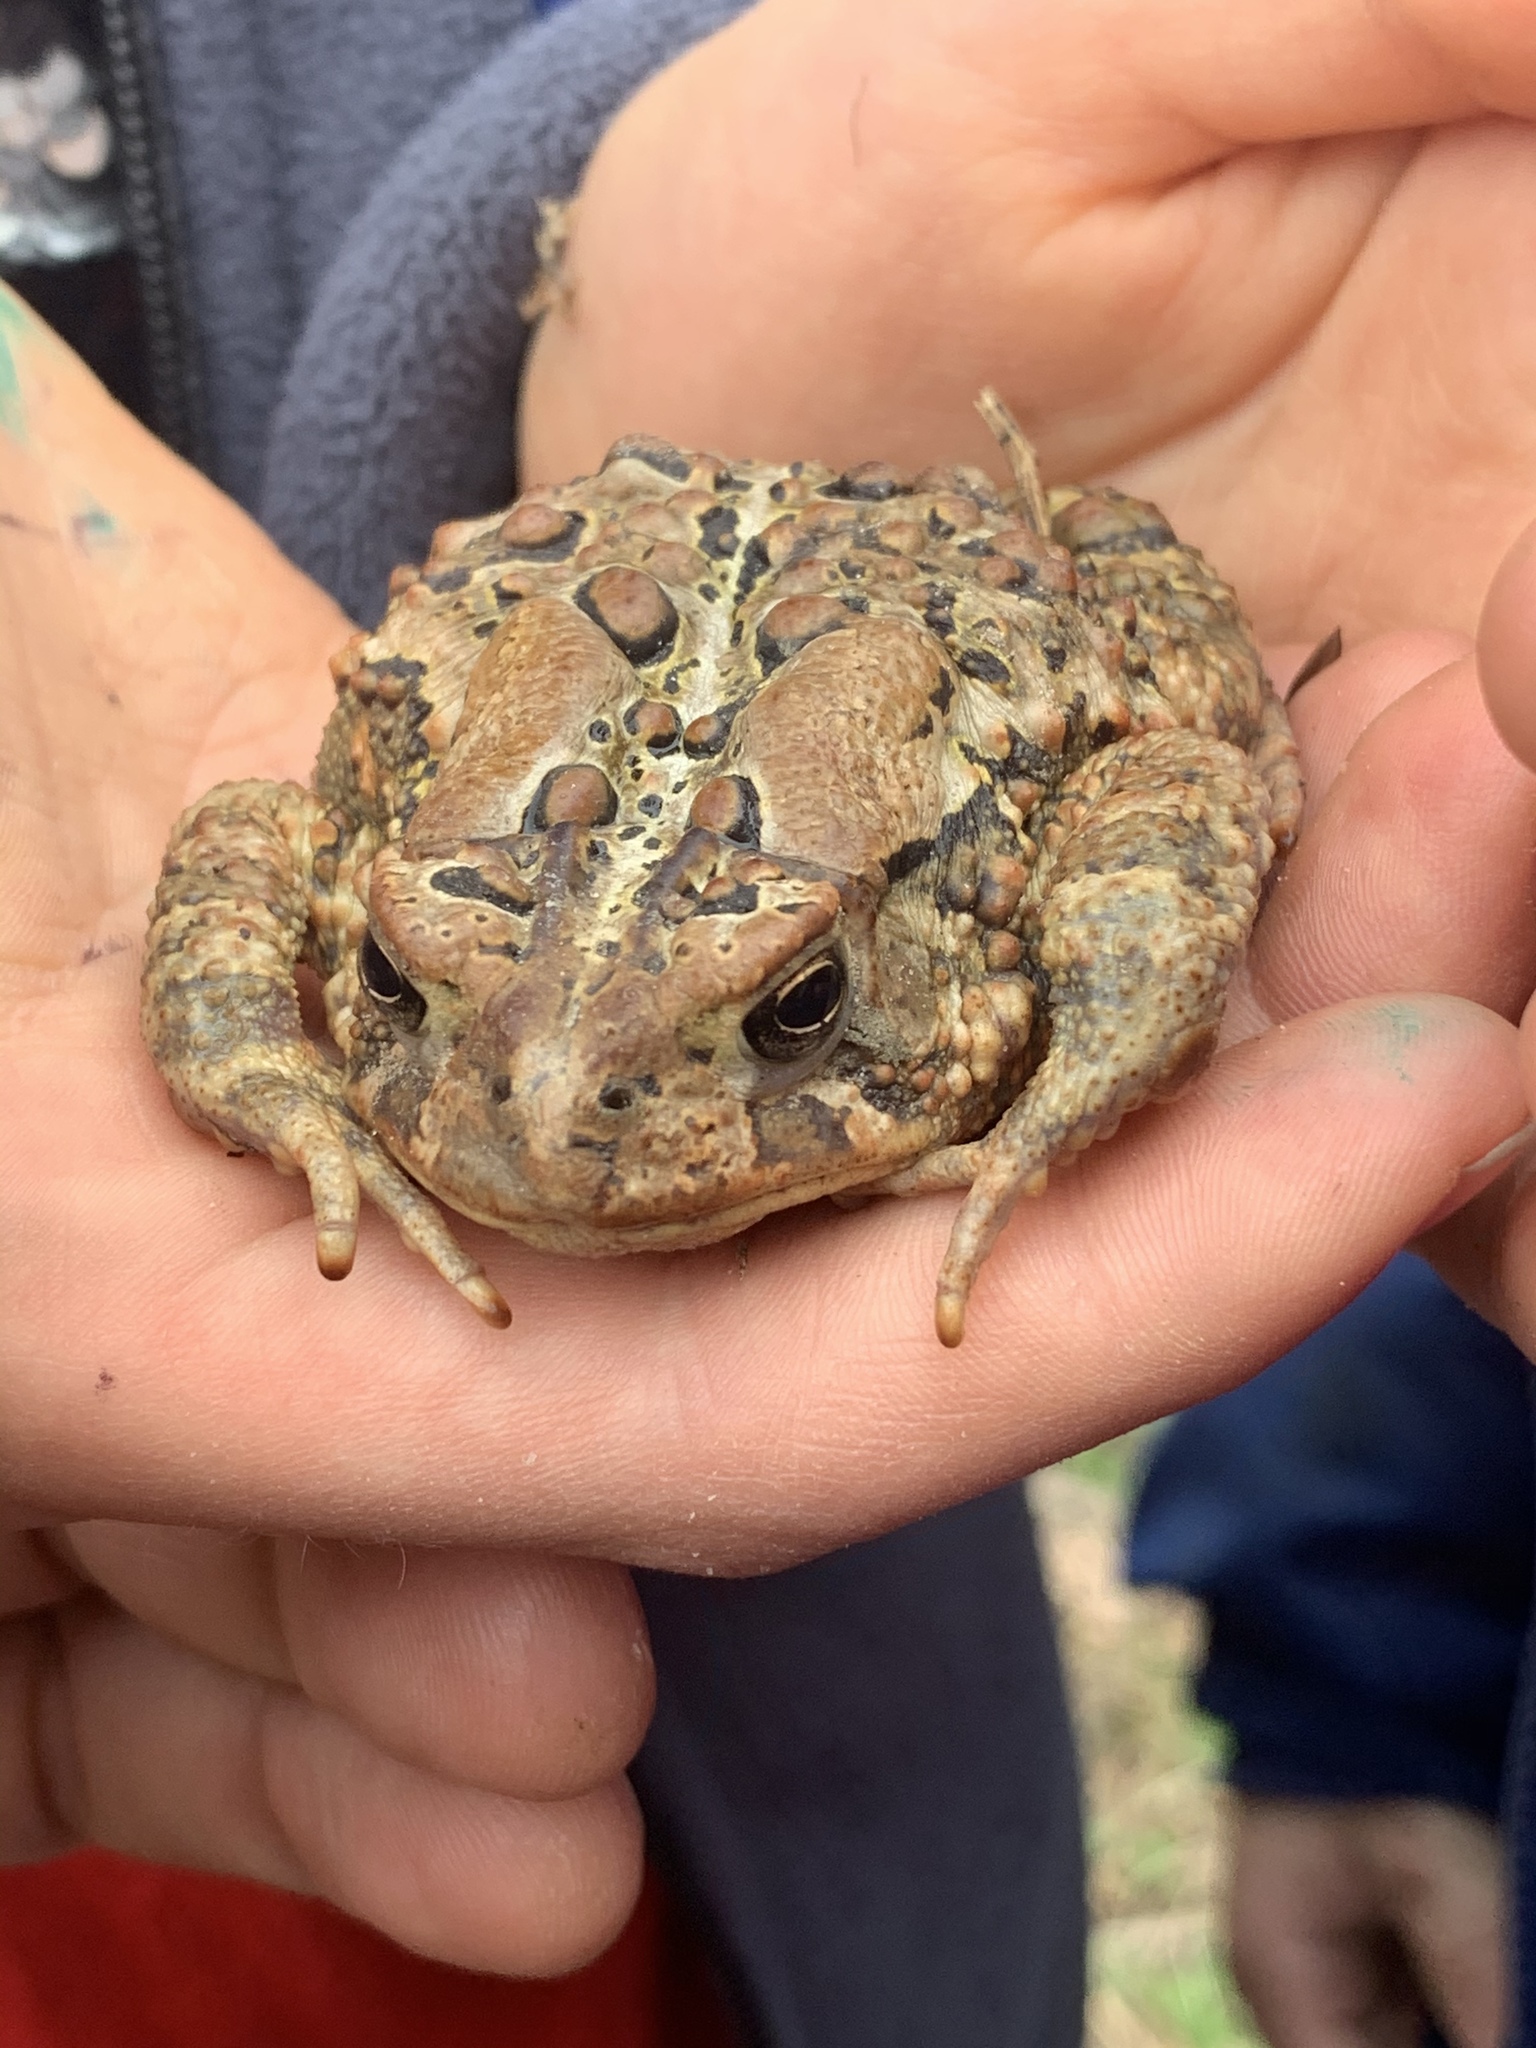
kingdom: Animalia
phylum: Chordata
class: Amphibia
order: Anura
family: Bufonidae
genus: Anaxyrus
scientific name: Anaxyrus americanus
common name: American toad
